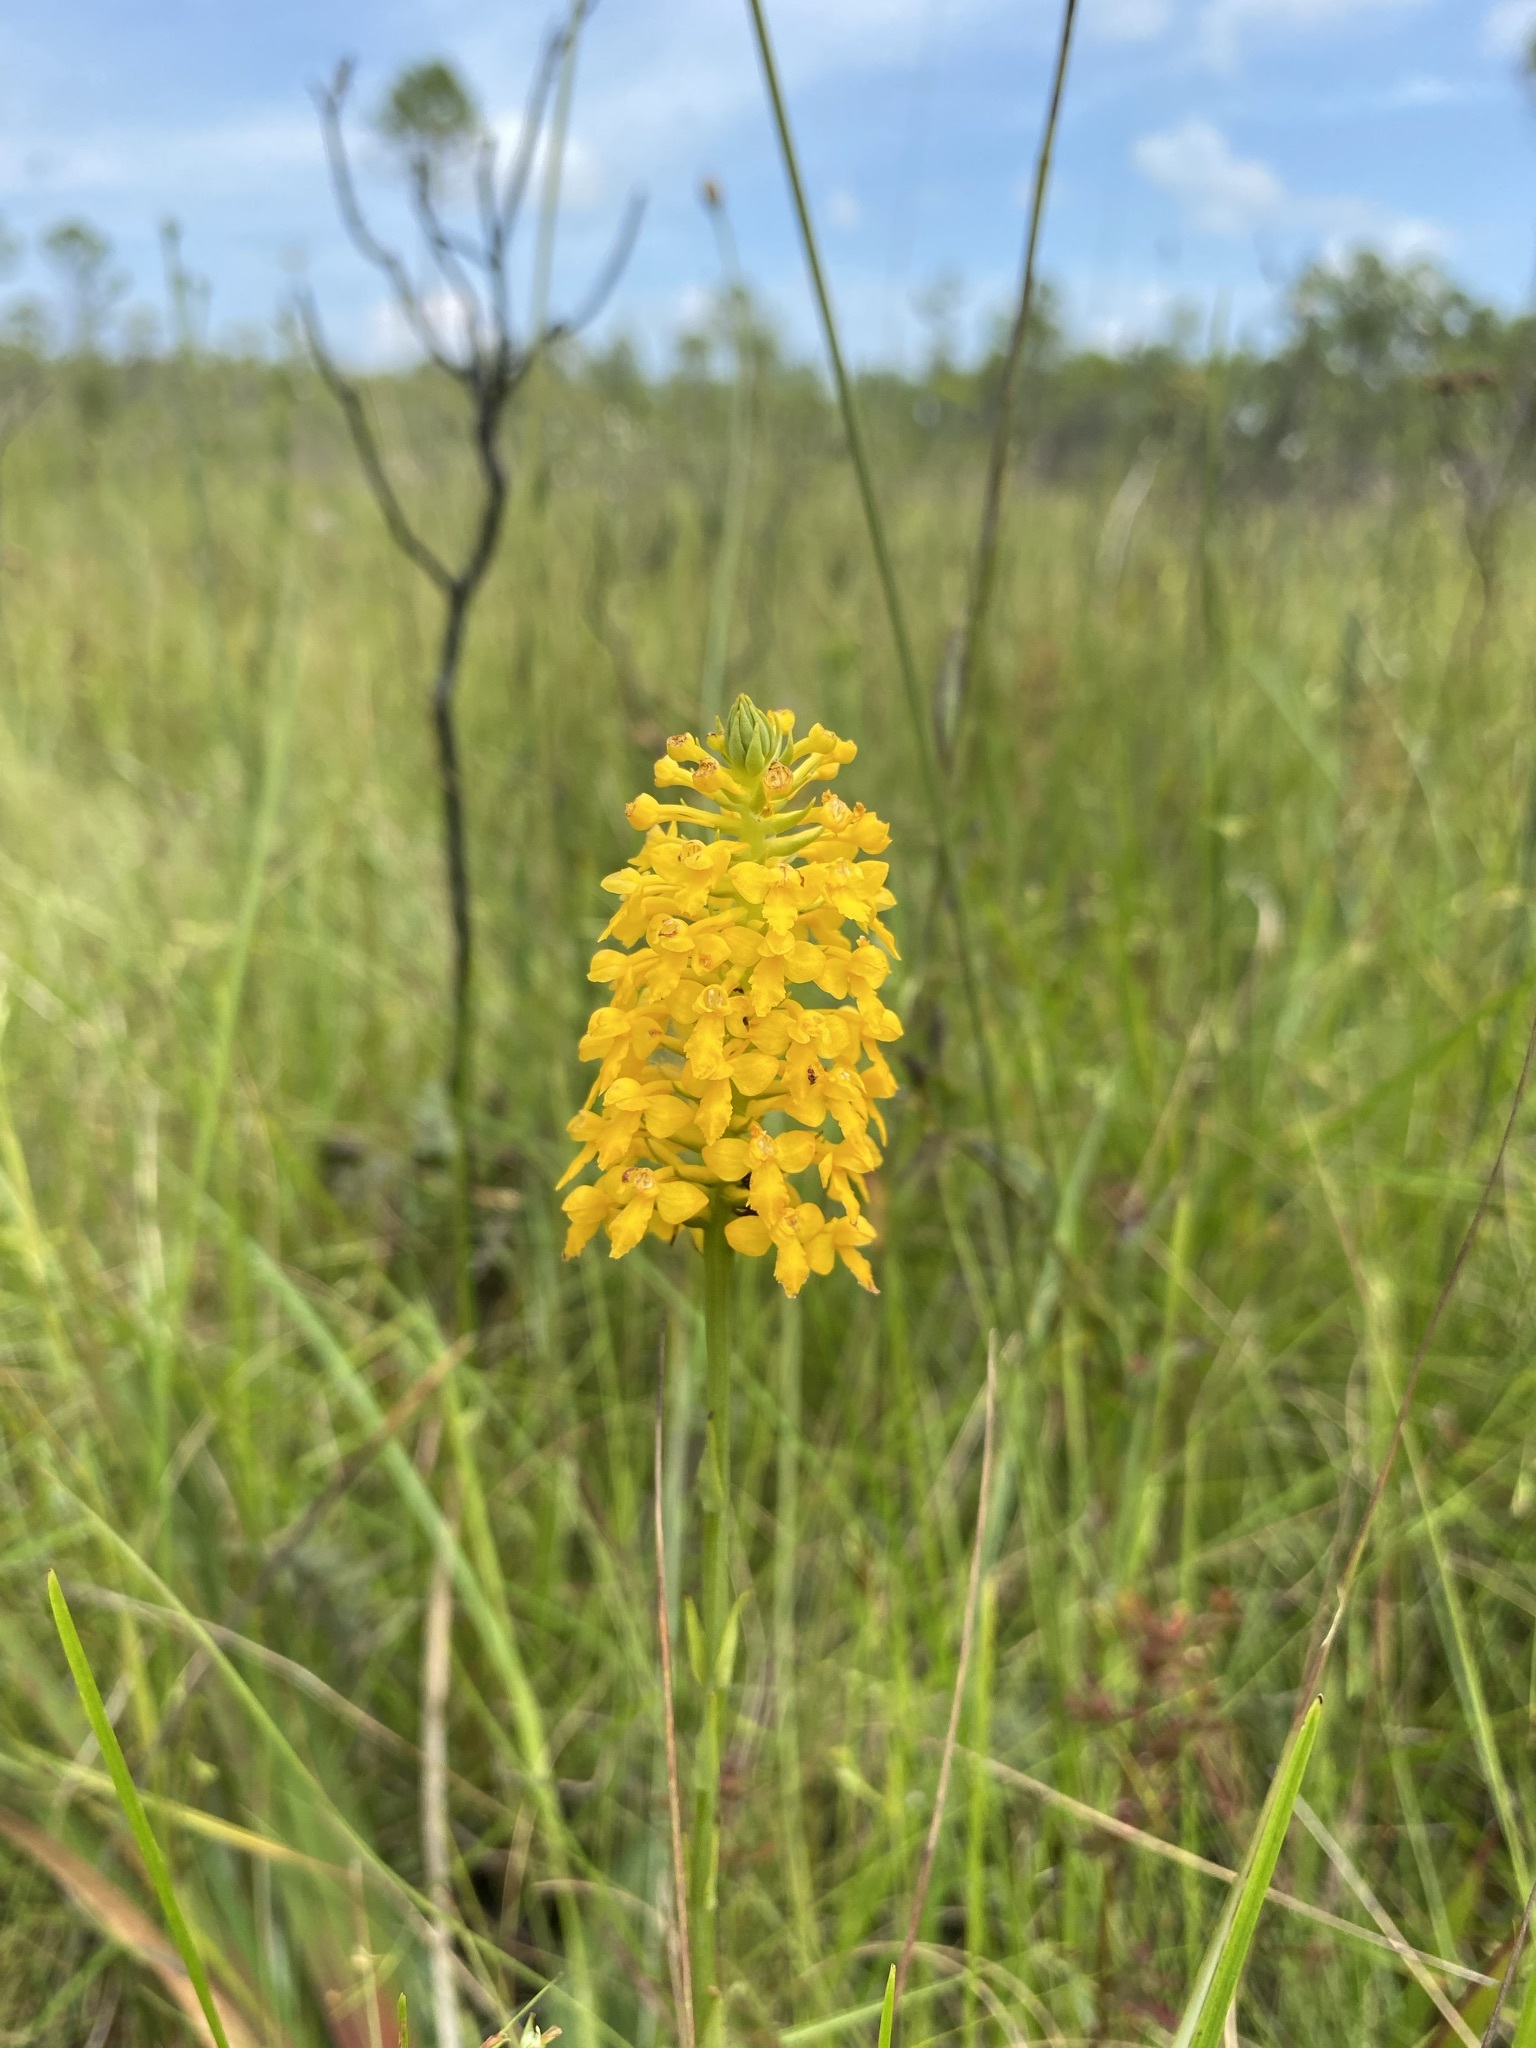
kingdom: Plantae
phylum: Tracheophyta
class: Liliopsida
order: Asparagales
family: Orchidaceae
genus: Platanthera
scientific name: Platanthera integra
